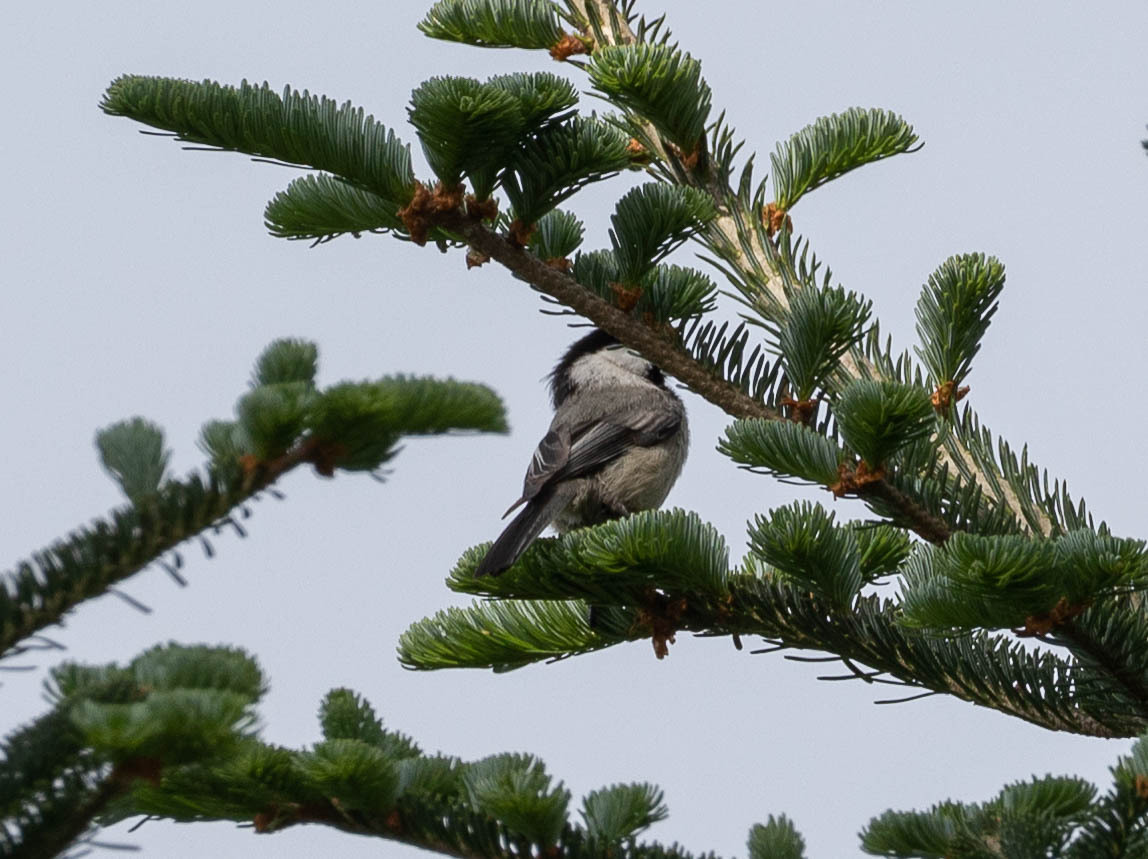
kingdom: Animalia
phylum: Chordata
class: Aves
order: Passeriformes
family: Paridae
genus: Poecile
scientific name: Poecile atricapillus
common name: Black-capped chickadee
